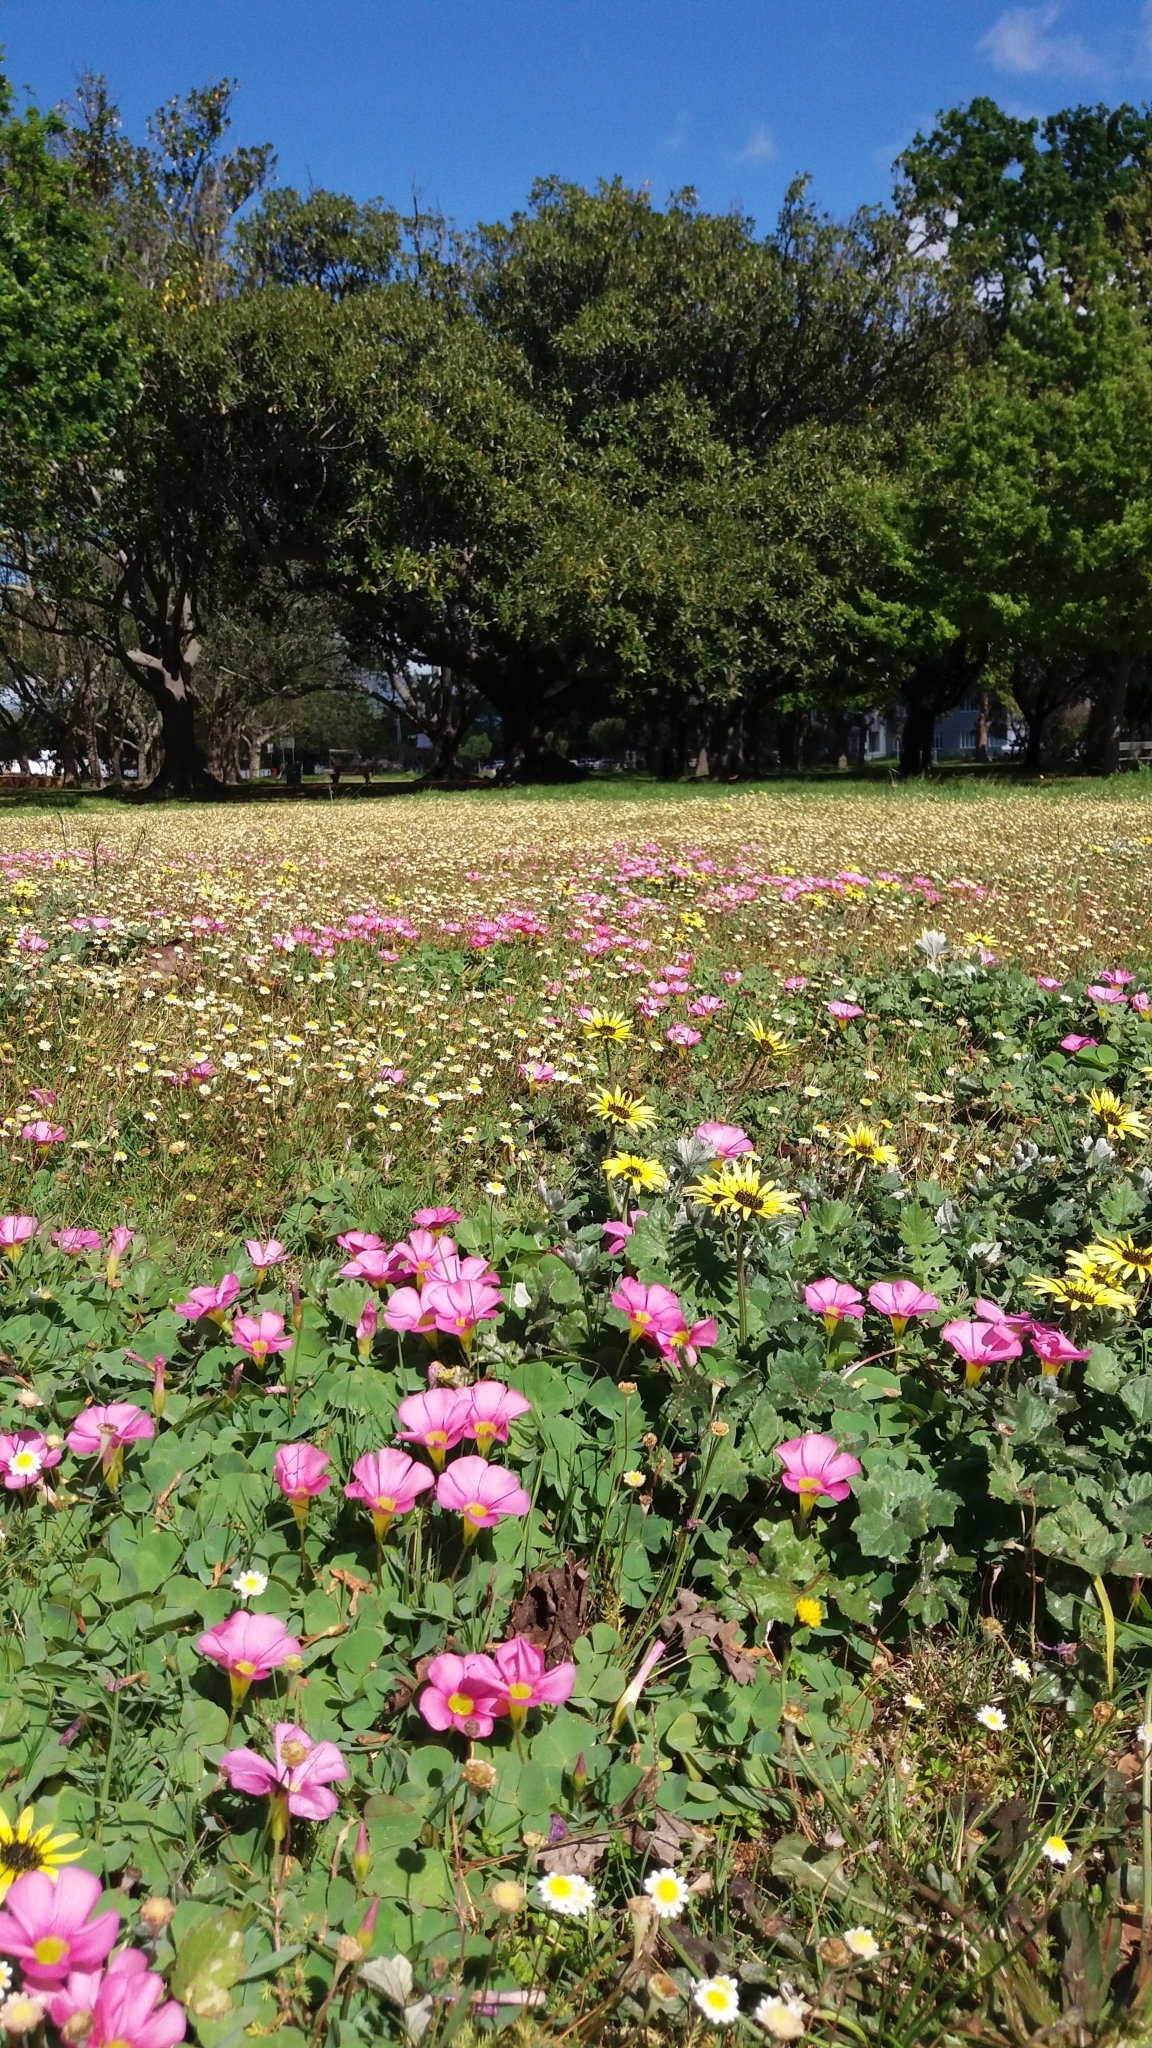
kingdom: Plantae
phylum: Tracheophyta
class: Magnoliopsida
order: Oxalidales
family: Oxalidaceae
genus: Oxalis
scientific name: Oxalis purpurea
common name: Purple woodsorrel
